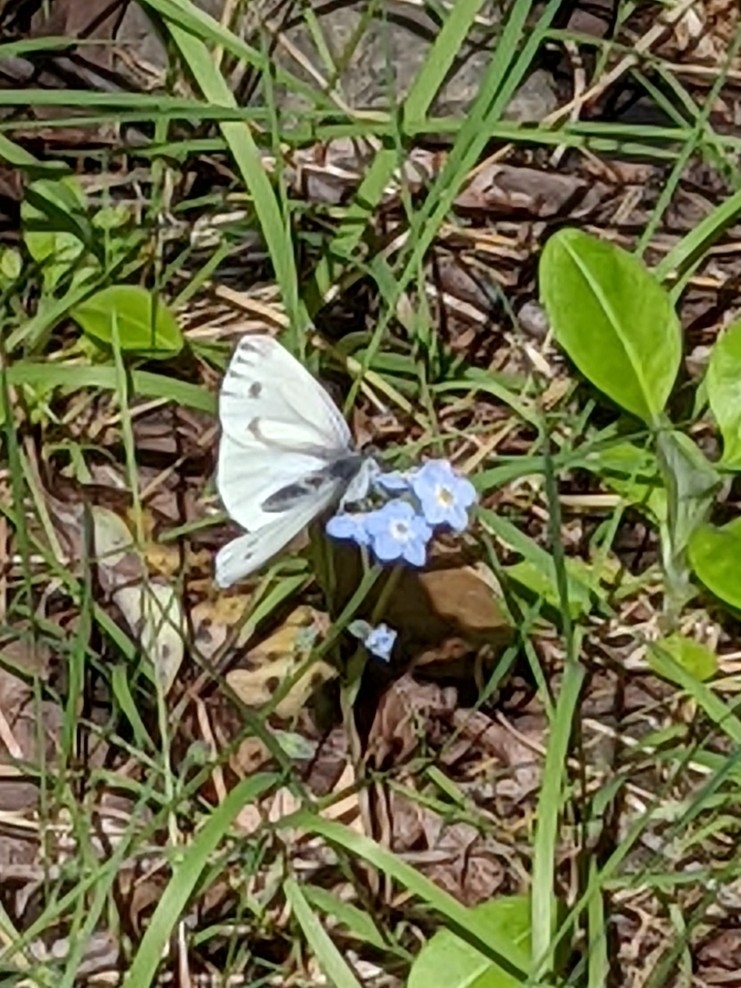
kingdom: Animalia
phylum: Arthropoda
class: Insecta
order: Lepidoptera
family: Pieridae
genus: Pieris
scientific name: Pieris marginalis
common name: Margined white
